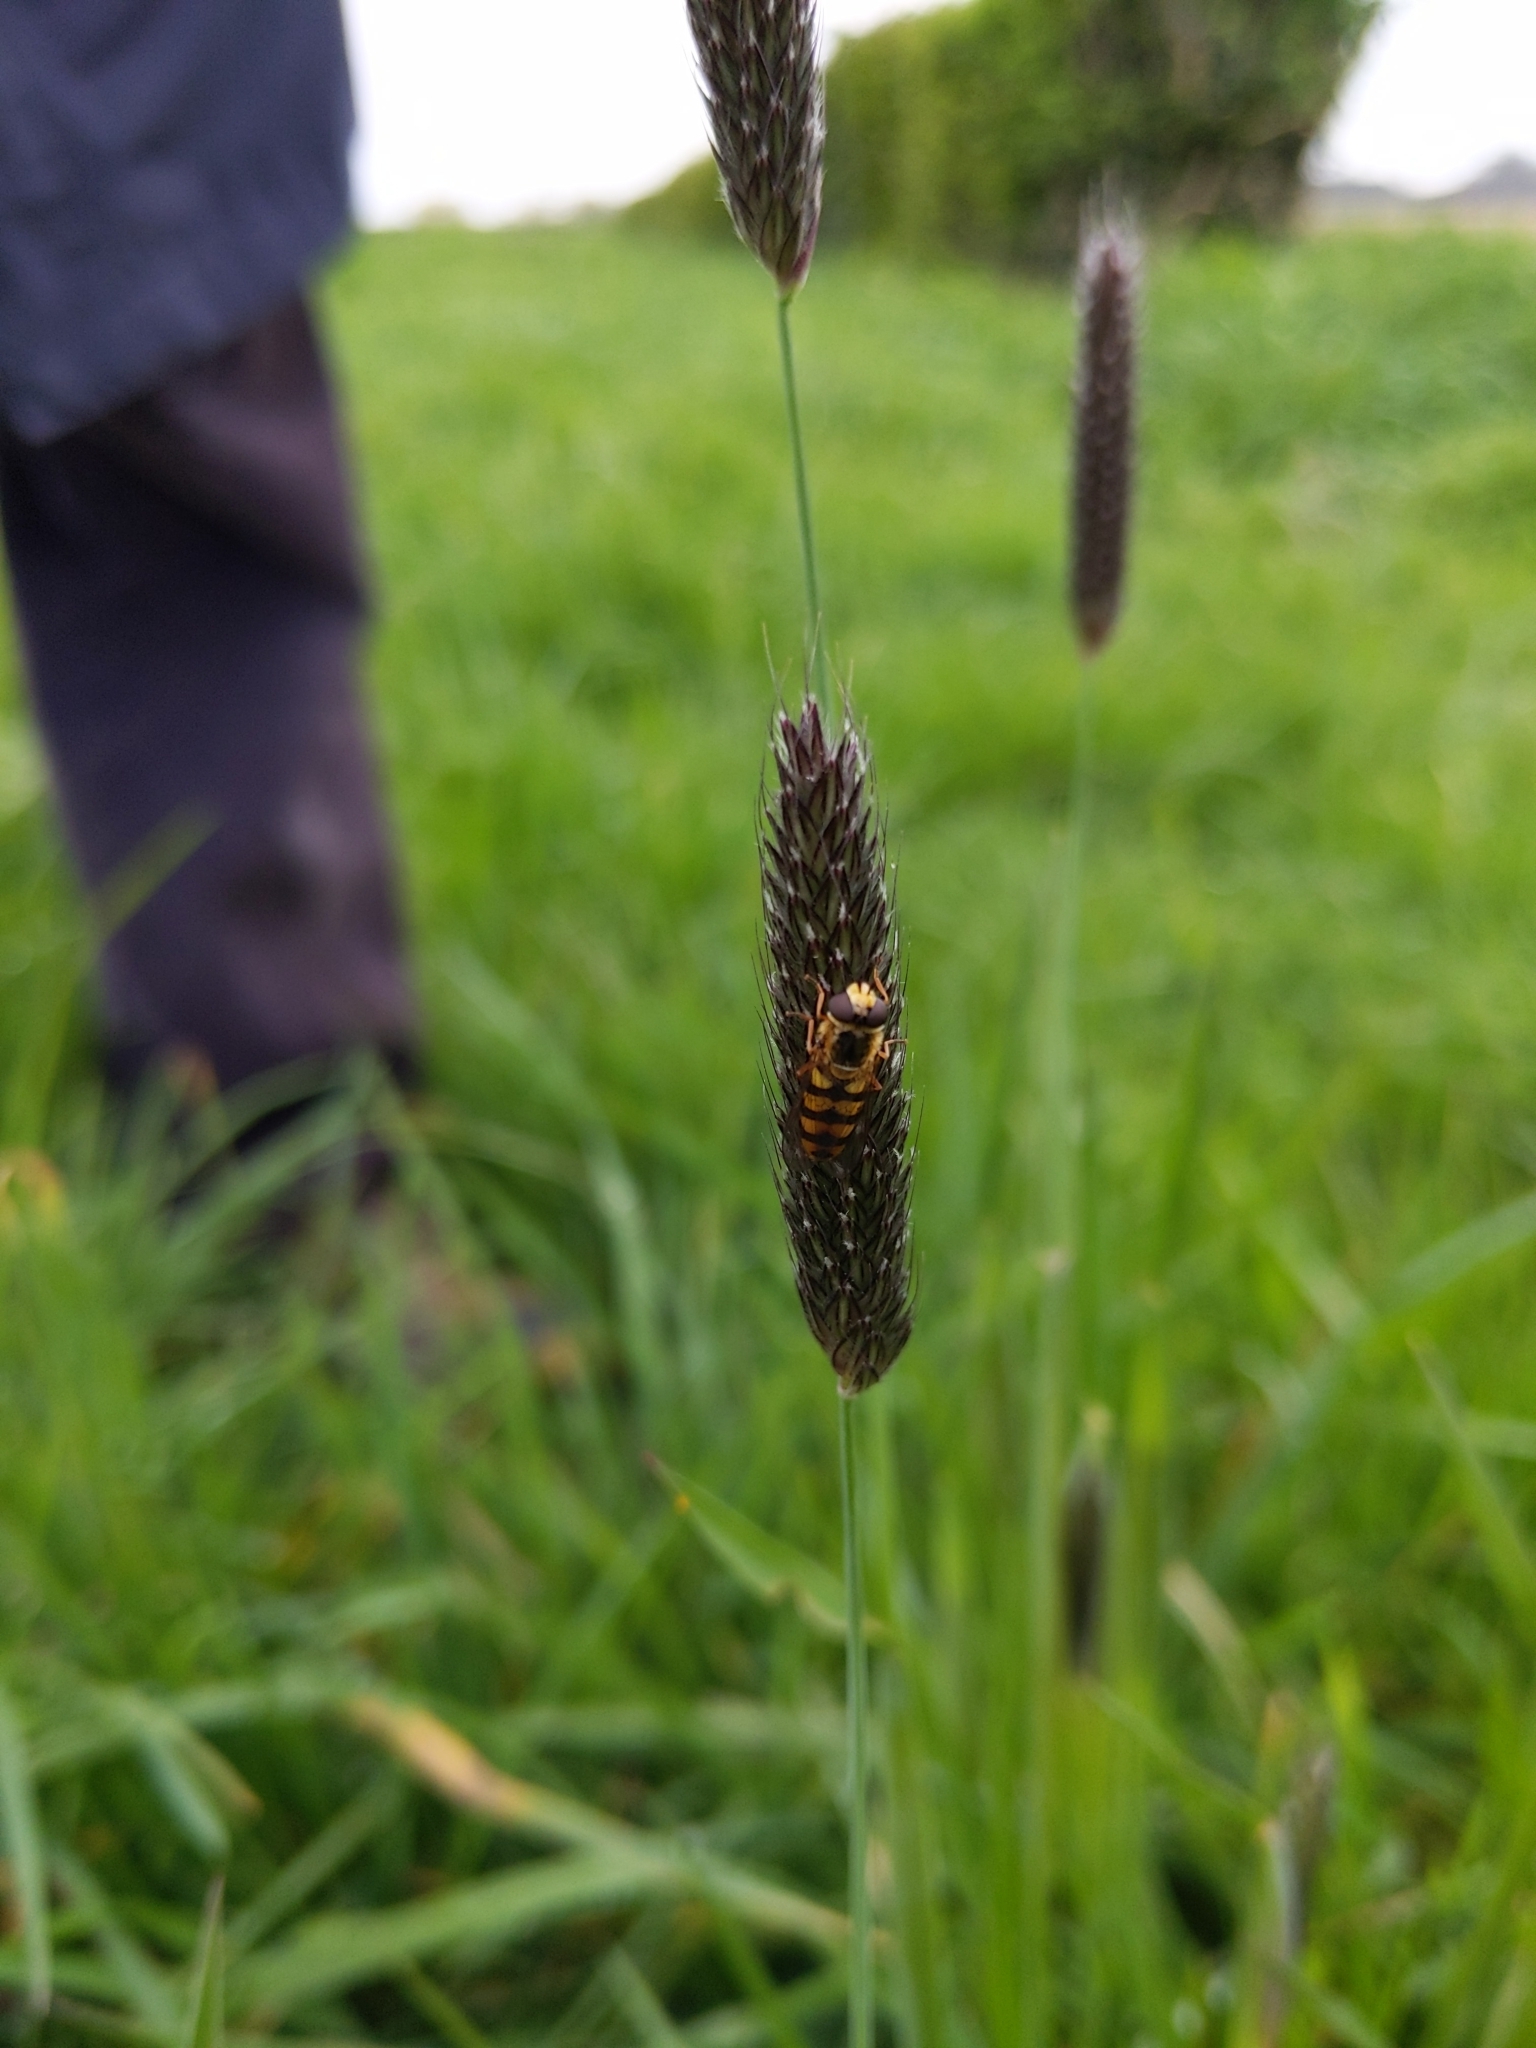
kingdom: Animalia
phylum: Arthropoda
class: Insecta
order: Diptera
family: Syrphidae
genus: Eupeodes
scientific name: Eupeodes latifasciatus
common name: Variable aphideater
